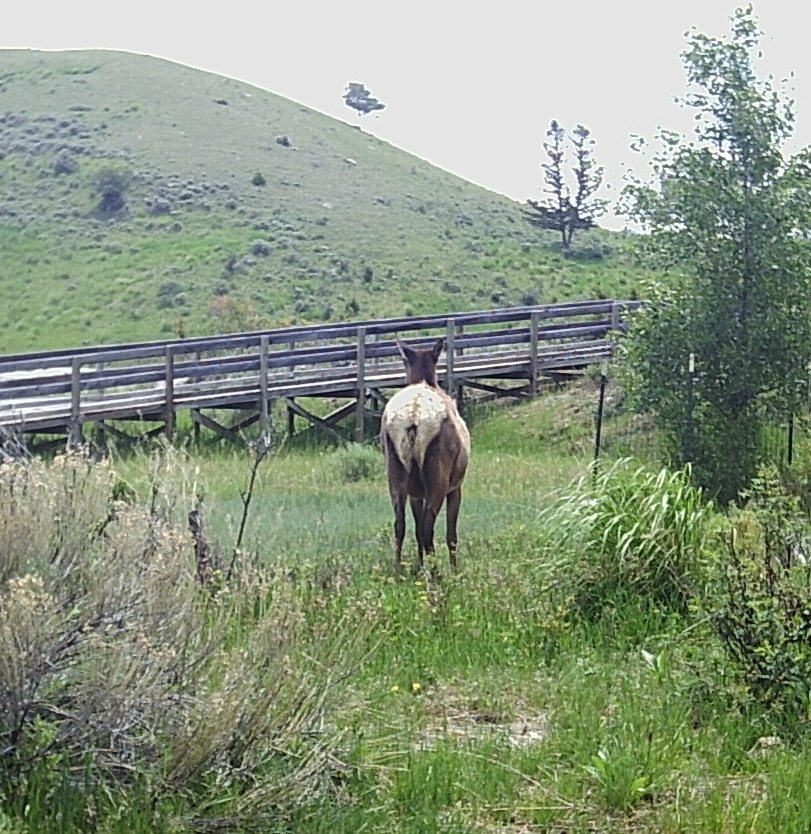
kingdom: Animalia
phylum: Chordata
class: Mammalia
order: Artiodactyla
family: Cervidae
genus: Cervus
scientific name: Cervus elaphus
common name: Red deer
